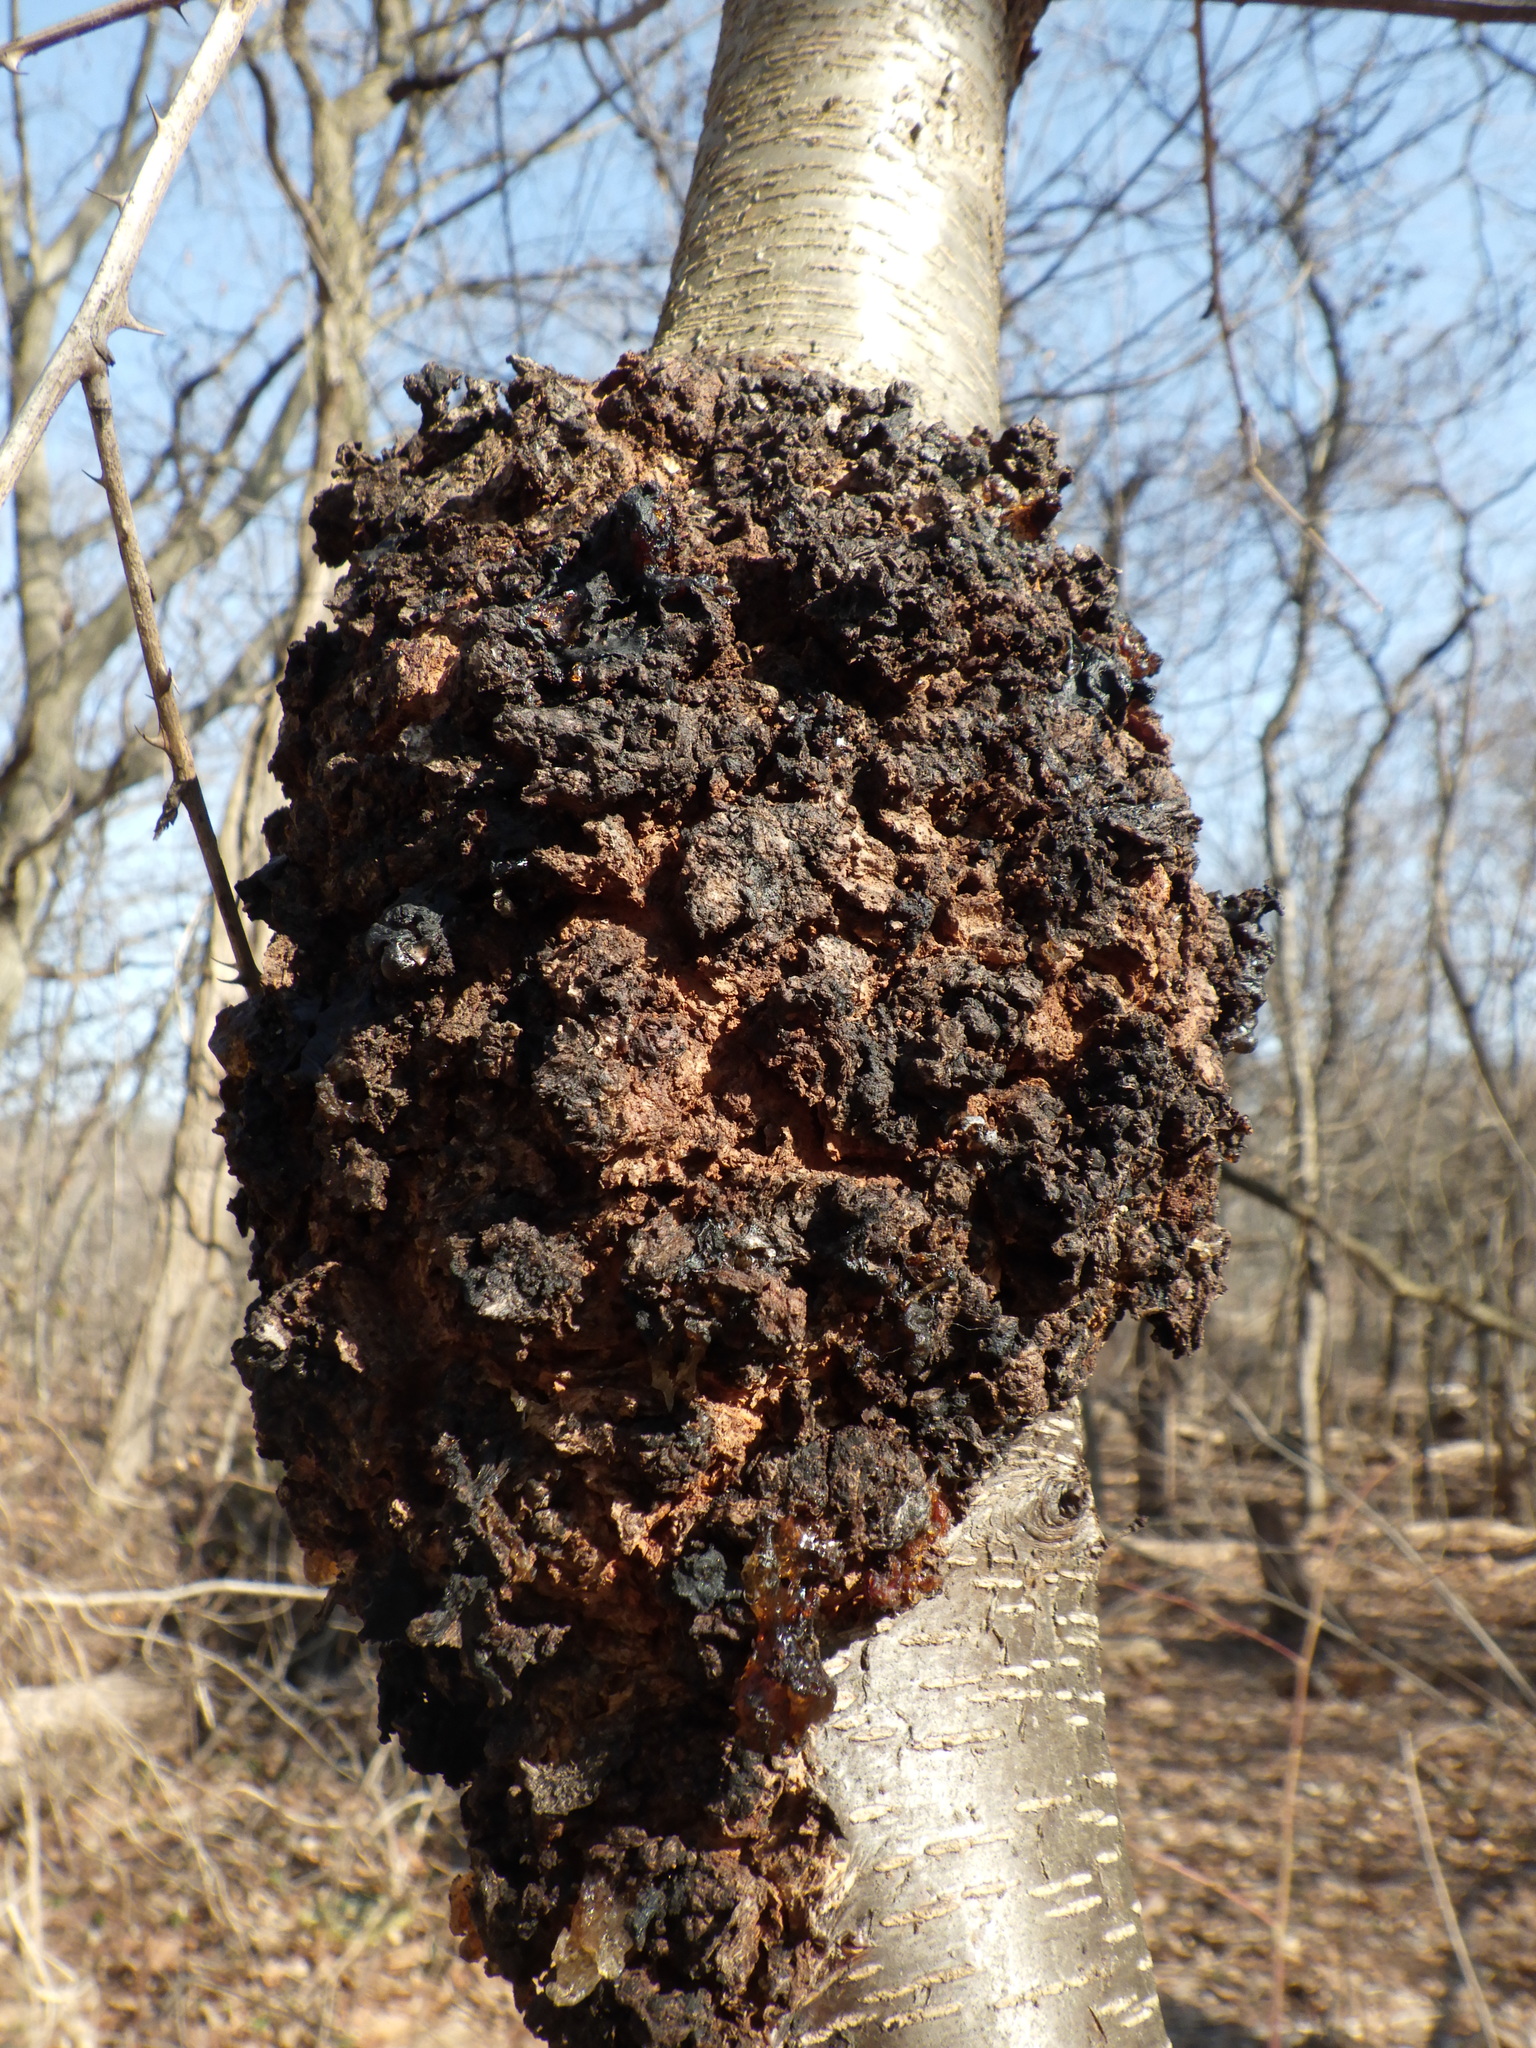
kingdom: Fungi
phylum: Ascomycota
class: Dothideomycetes
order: Venturiales
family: Venturiaceae
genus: Apiosporina
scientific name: Apiosporina morbosa
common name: Black knot
